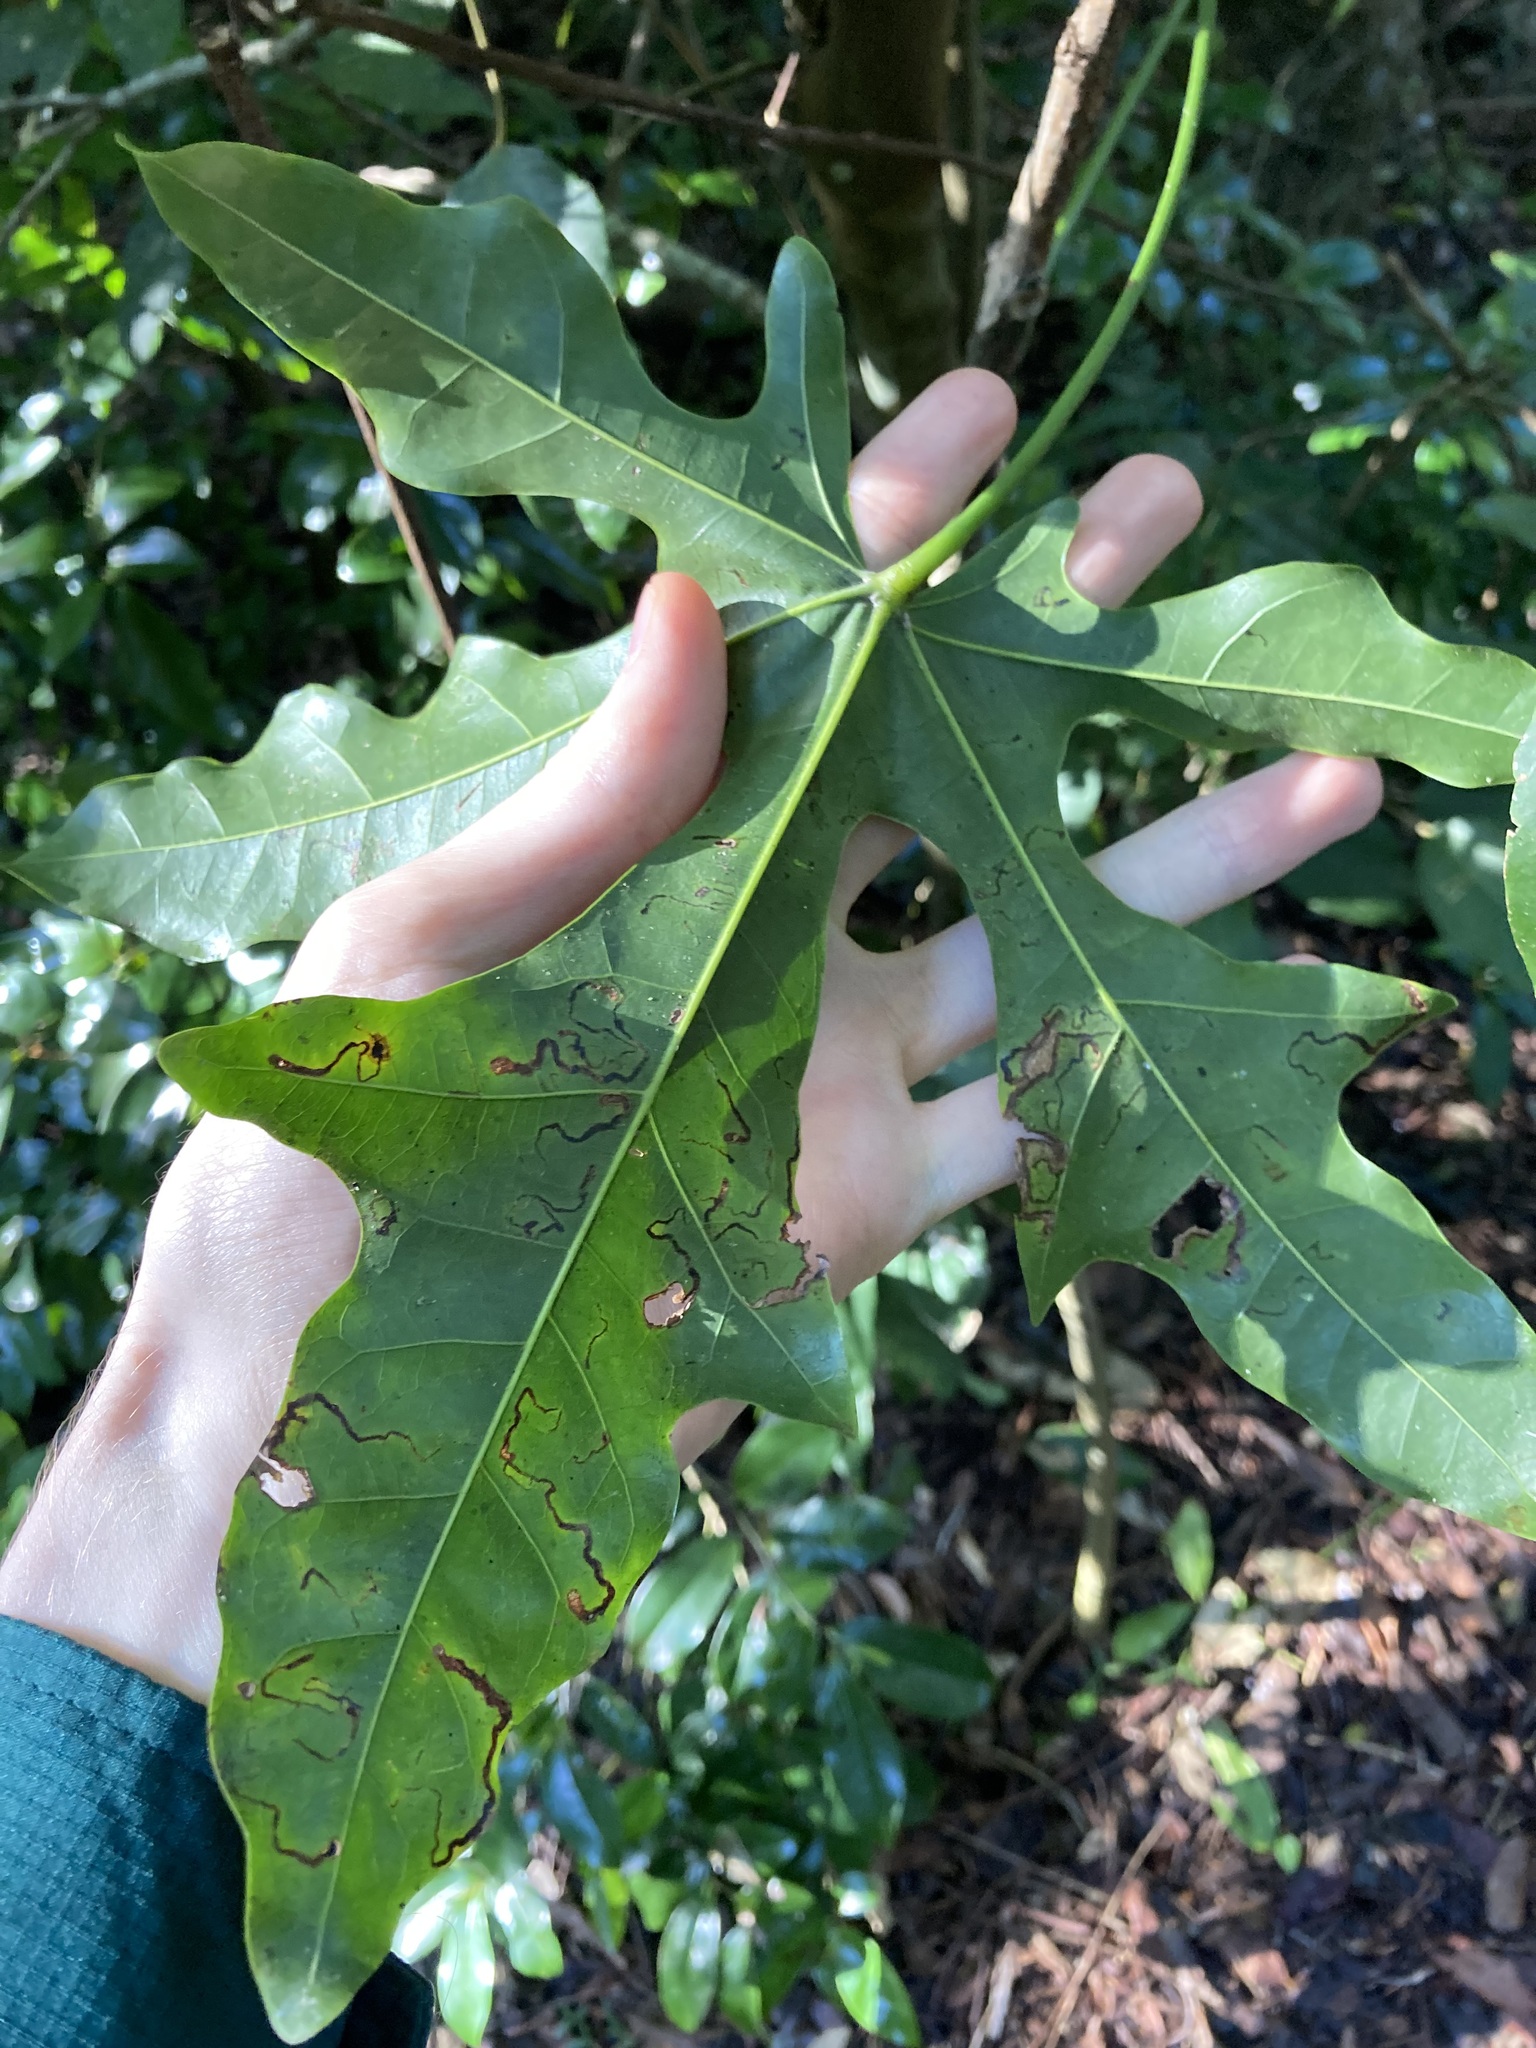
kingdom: Plantae
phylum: Tracheophyta
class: Magnoliopsida
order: Malvales
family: Malvaceae
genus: Brachychiton
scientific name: Brachychiton acerifolius
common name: Illawarra flame tree
